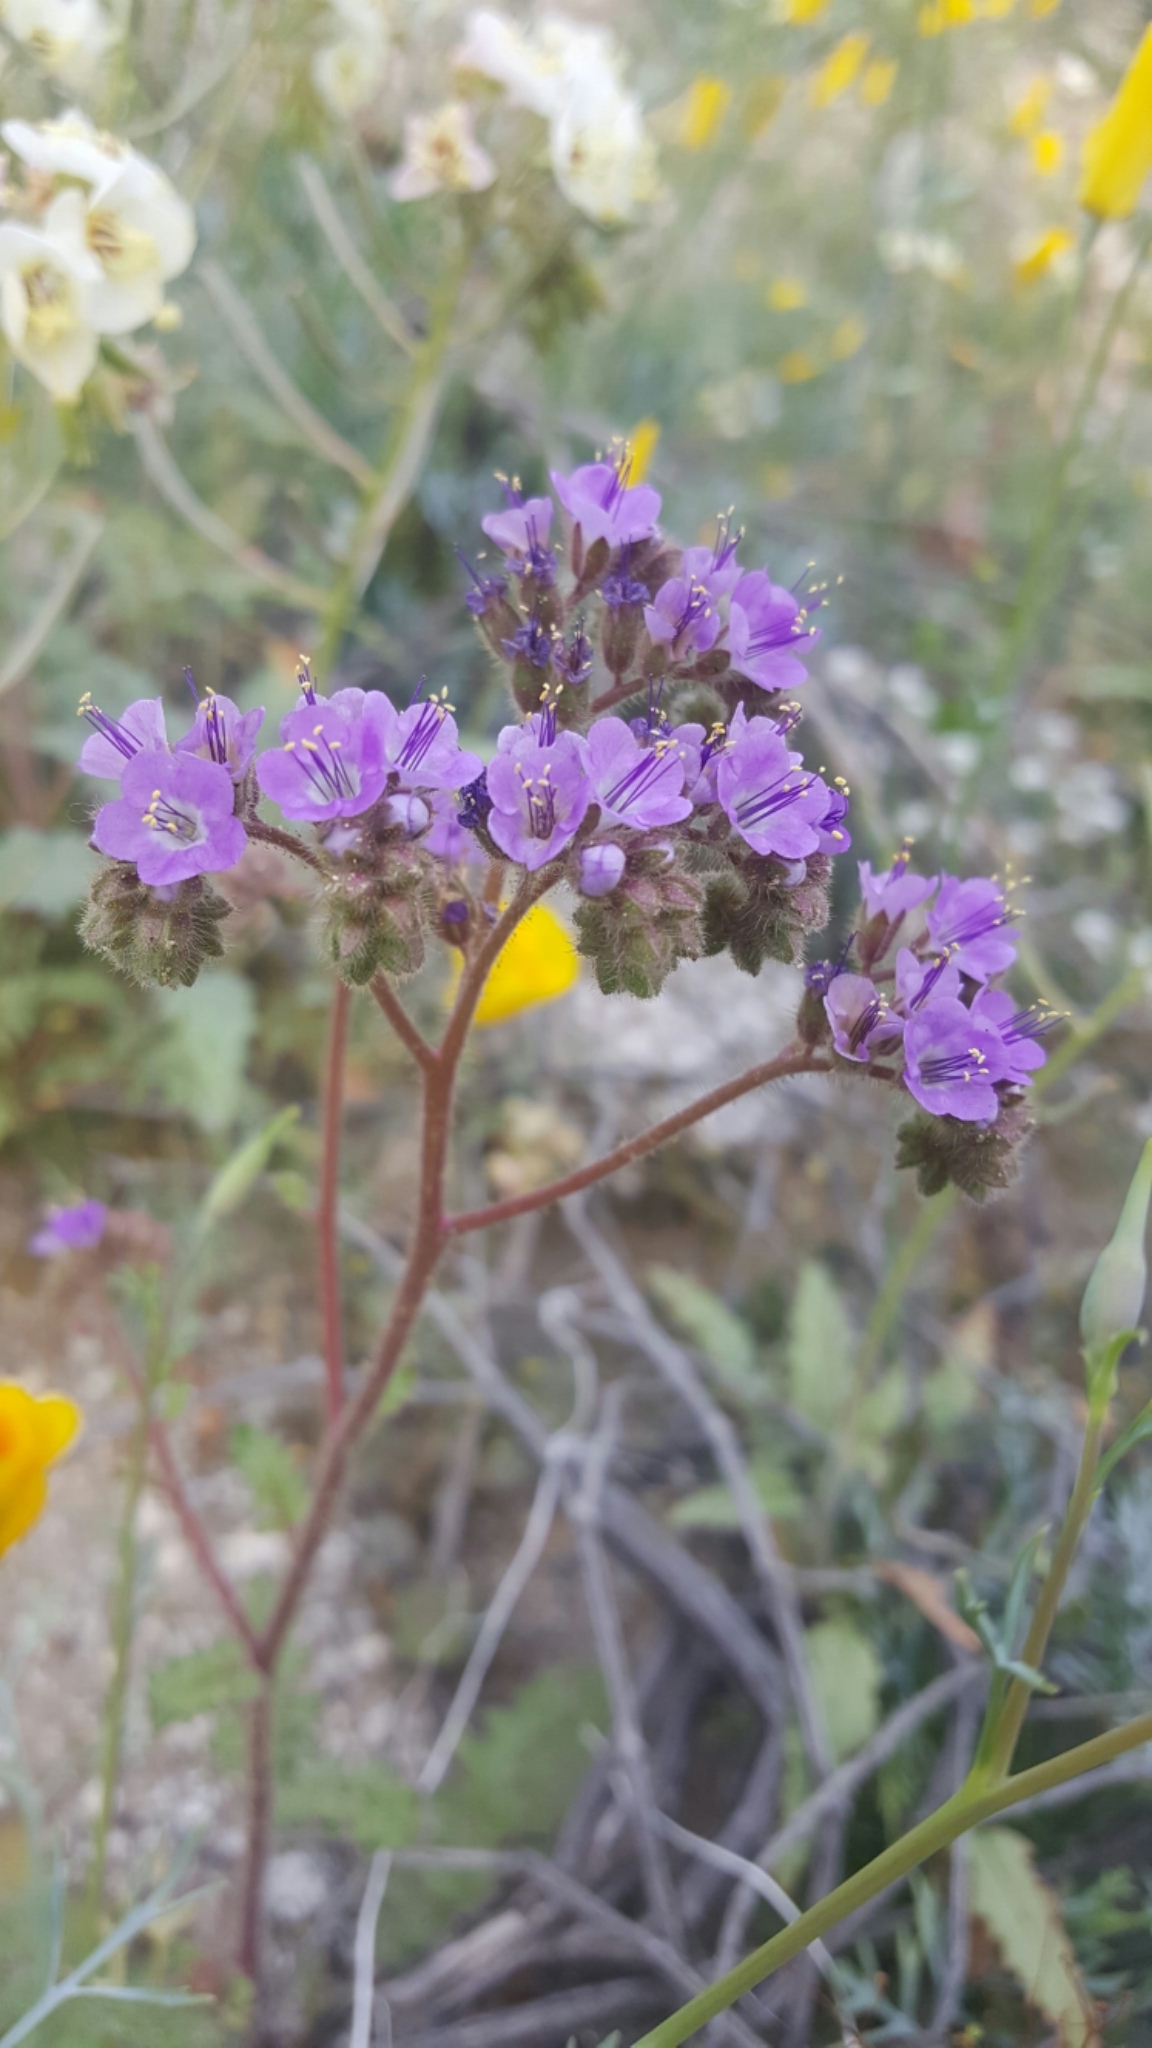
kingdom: Plantae
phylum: Tracheophyta
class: Magnoliopsida
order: Boraginales
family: Hydrophyllaceae
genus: Phacelia
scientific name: Phacelia crenulata
